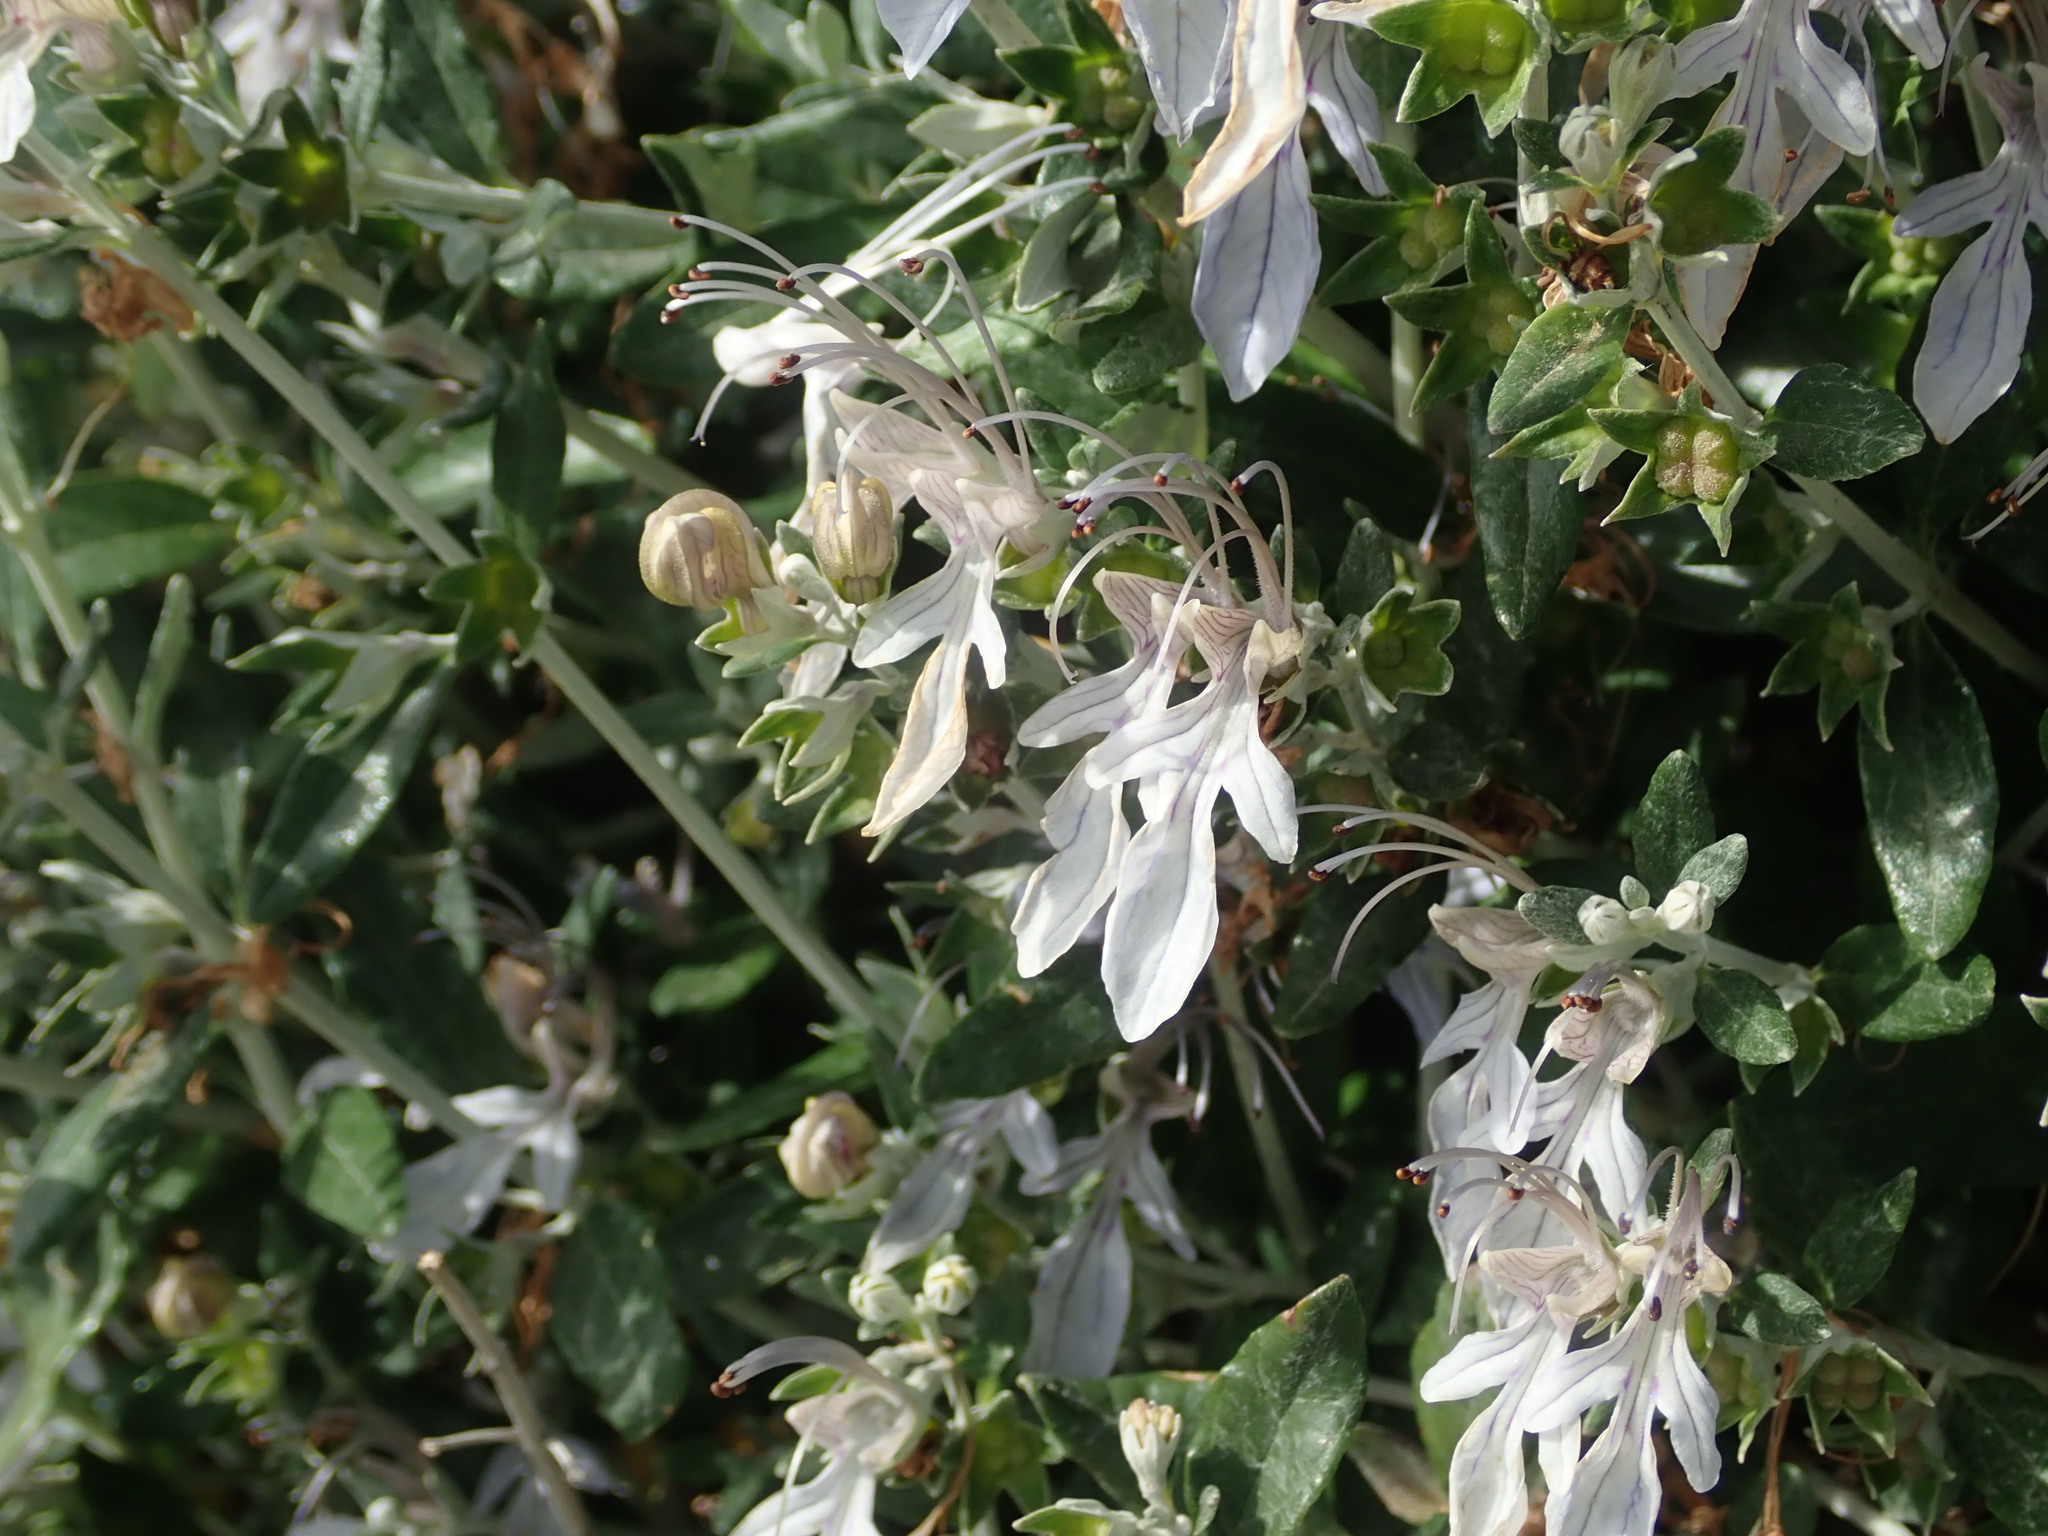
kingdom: Plantae
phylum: Tracheophyta
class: Magnoliopsida
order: Lamiales
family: Lamiaceae
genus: Teucrium
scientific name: Teucrium fruticans
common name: Shrubby germander
